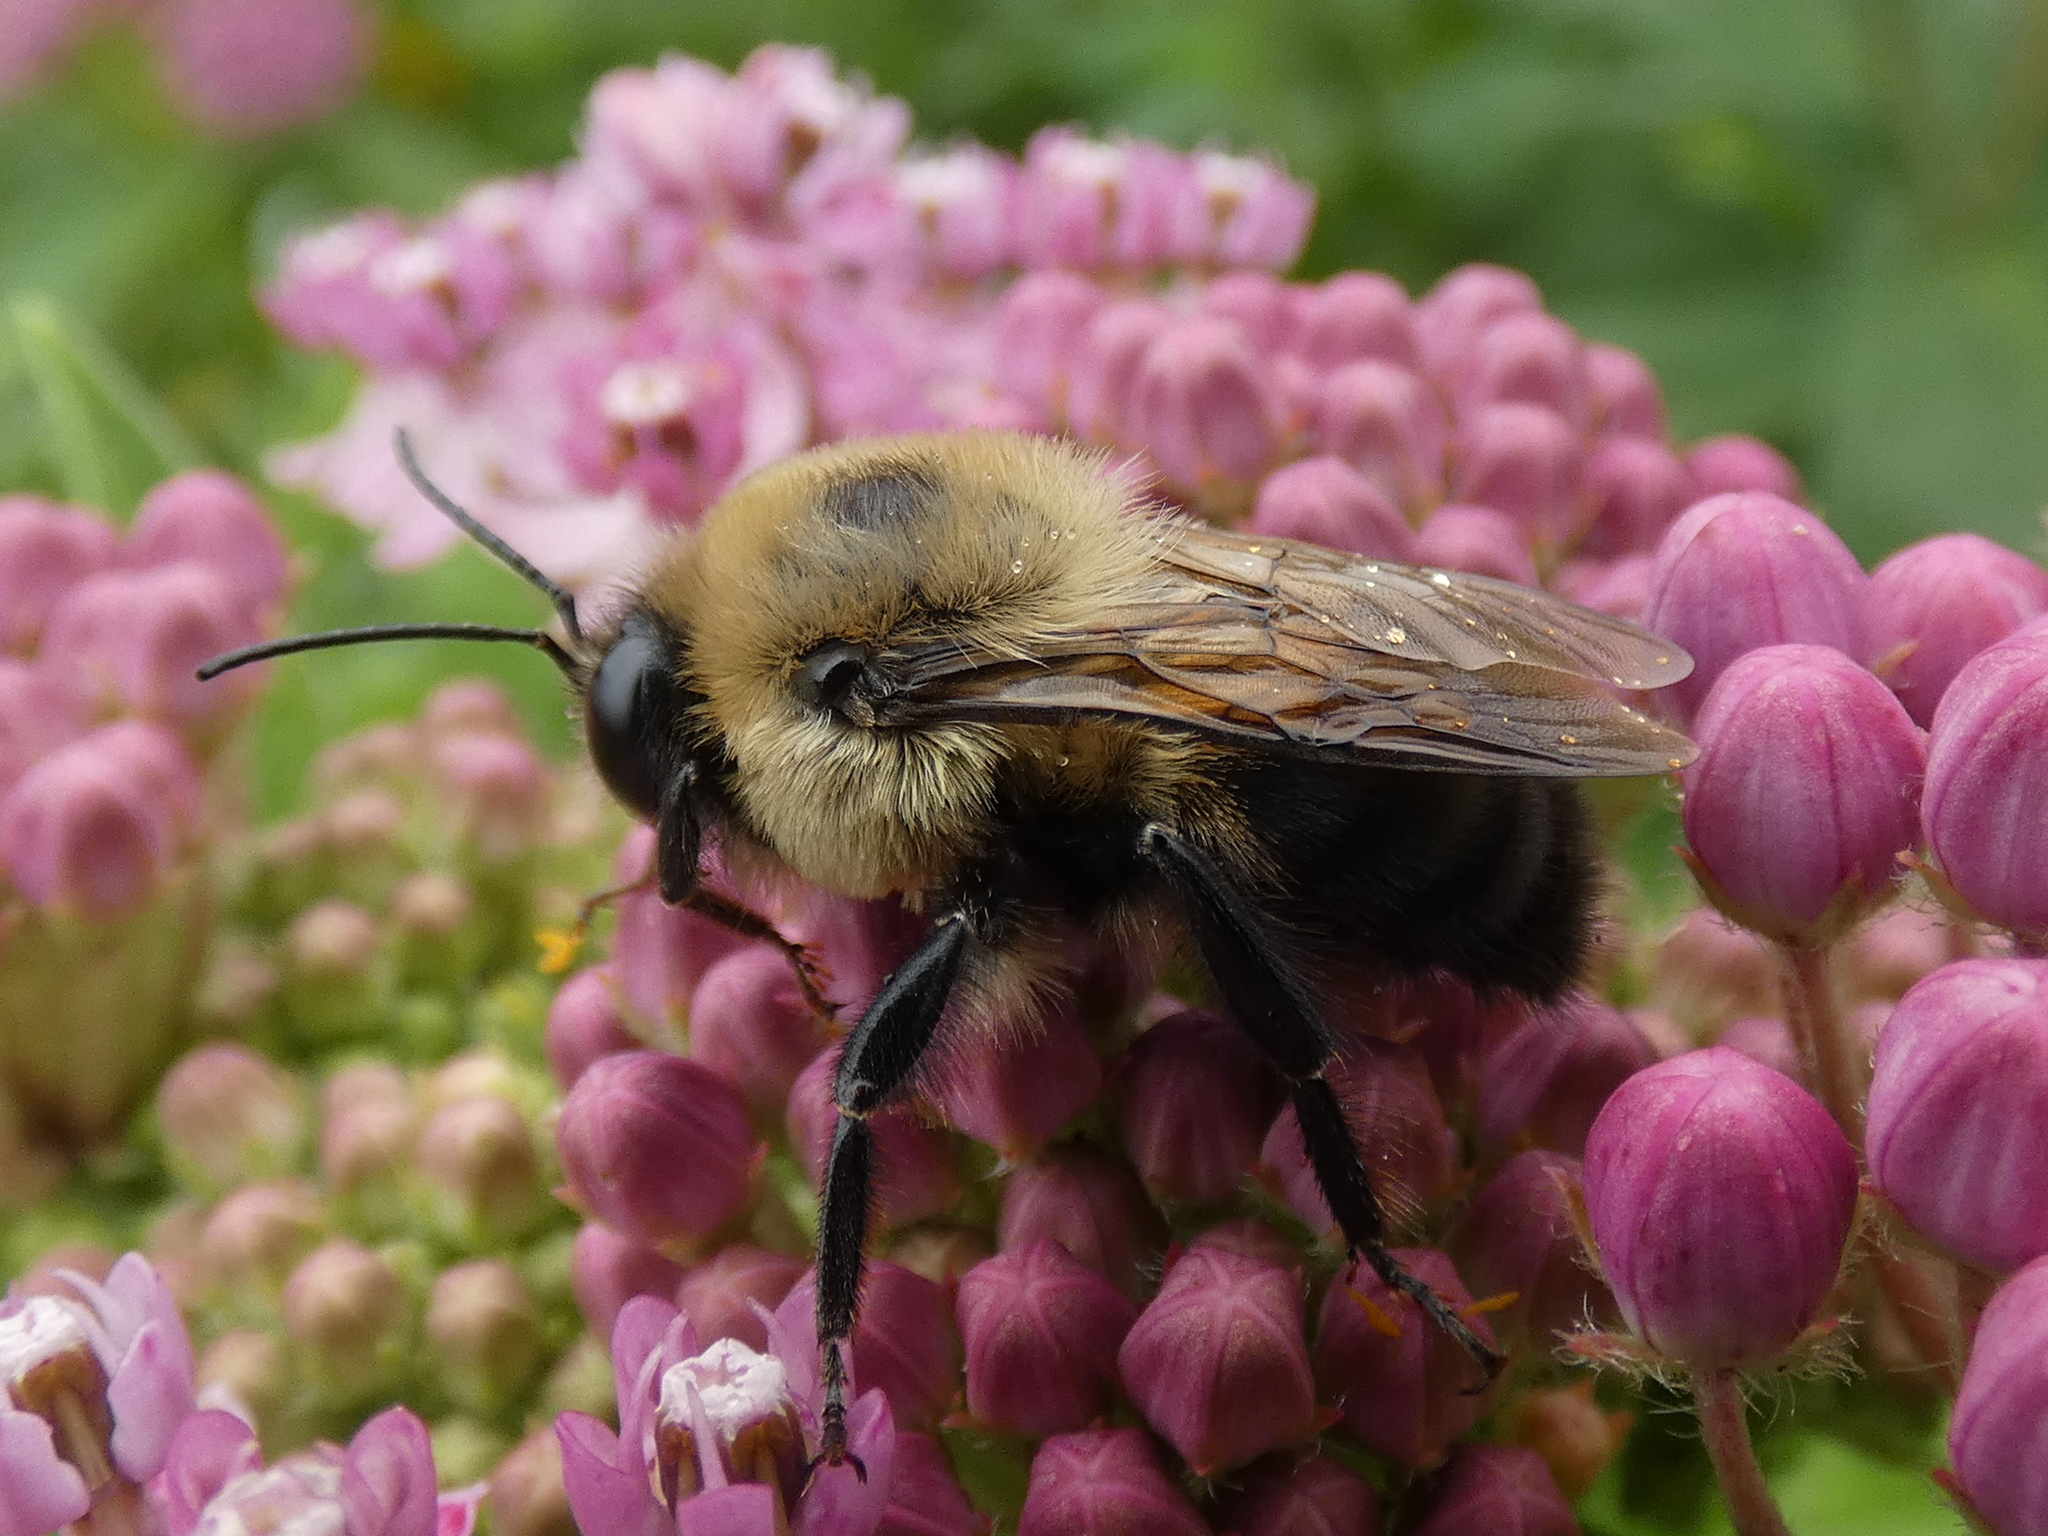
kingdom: Animalia
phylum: Arthropoda
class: Insecta
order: Hymenoptera
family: Apidae
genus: Bombus
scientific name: Bombus griseocollis
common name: Brown-belted bumble bee
